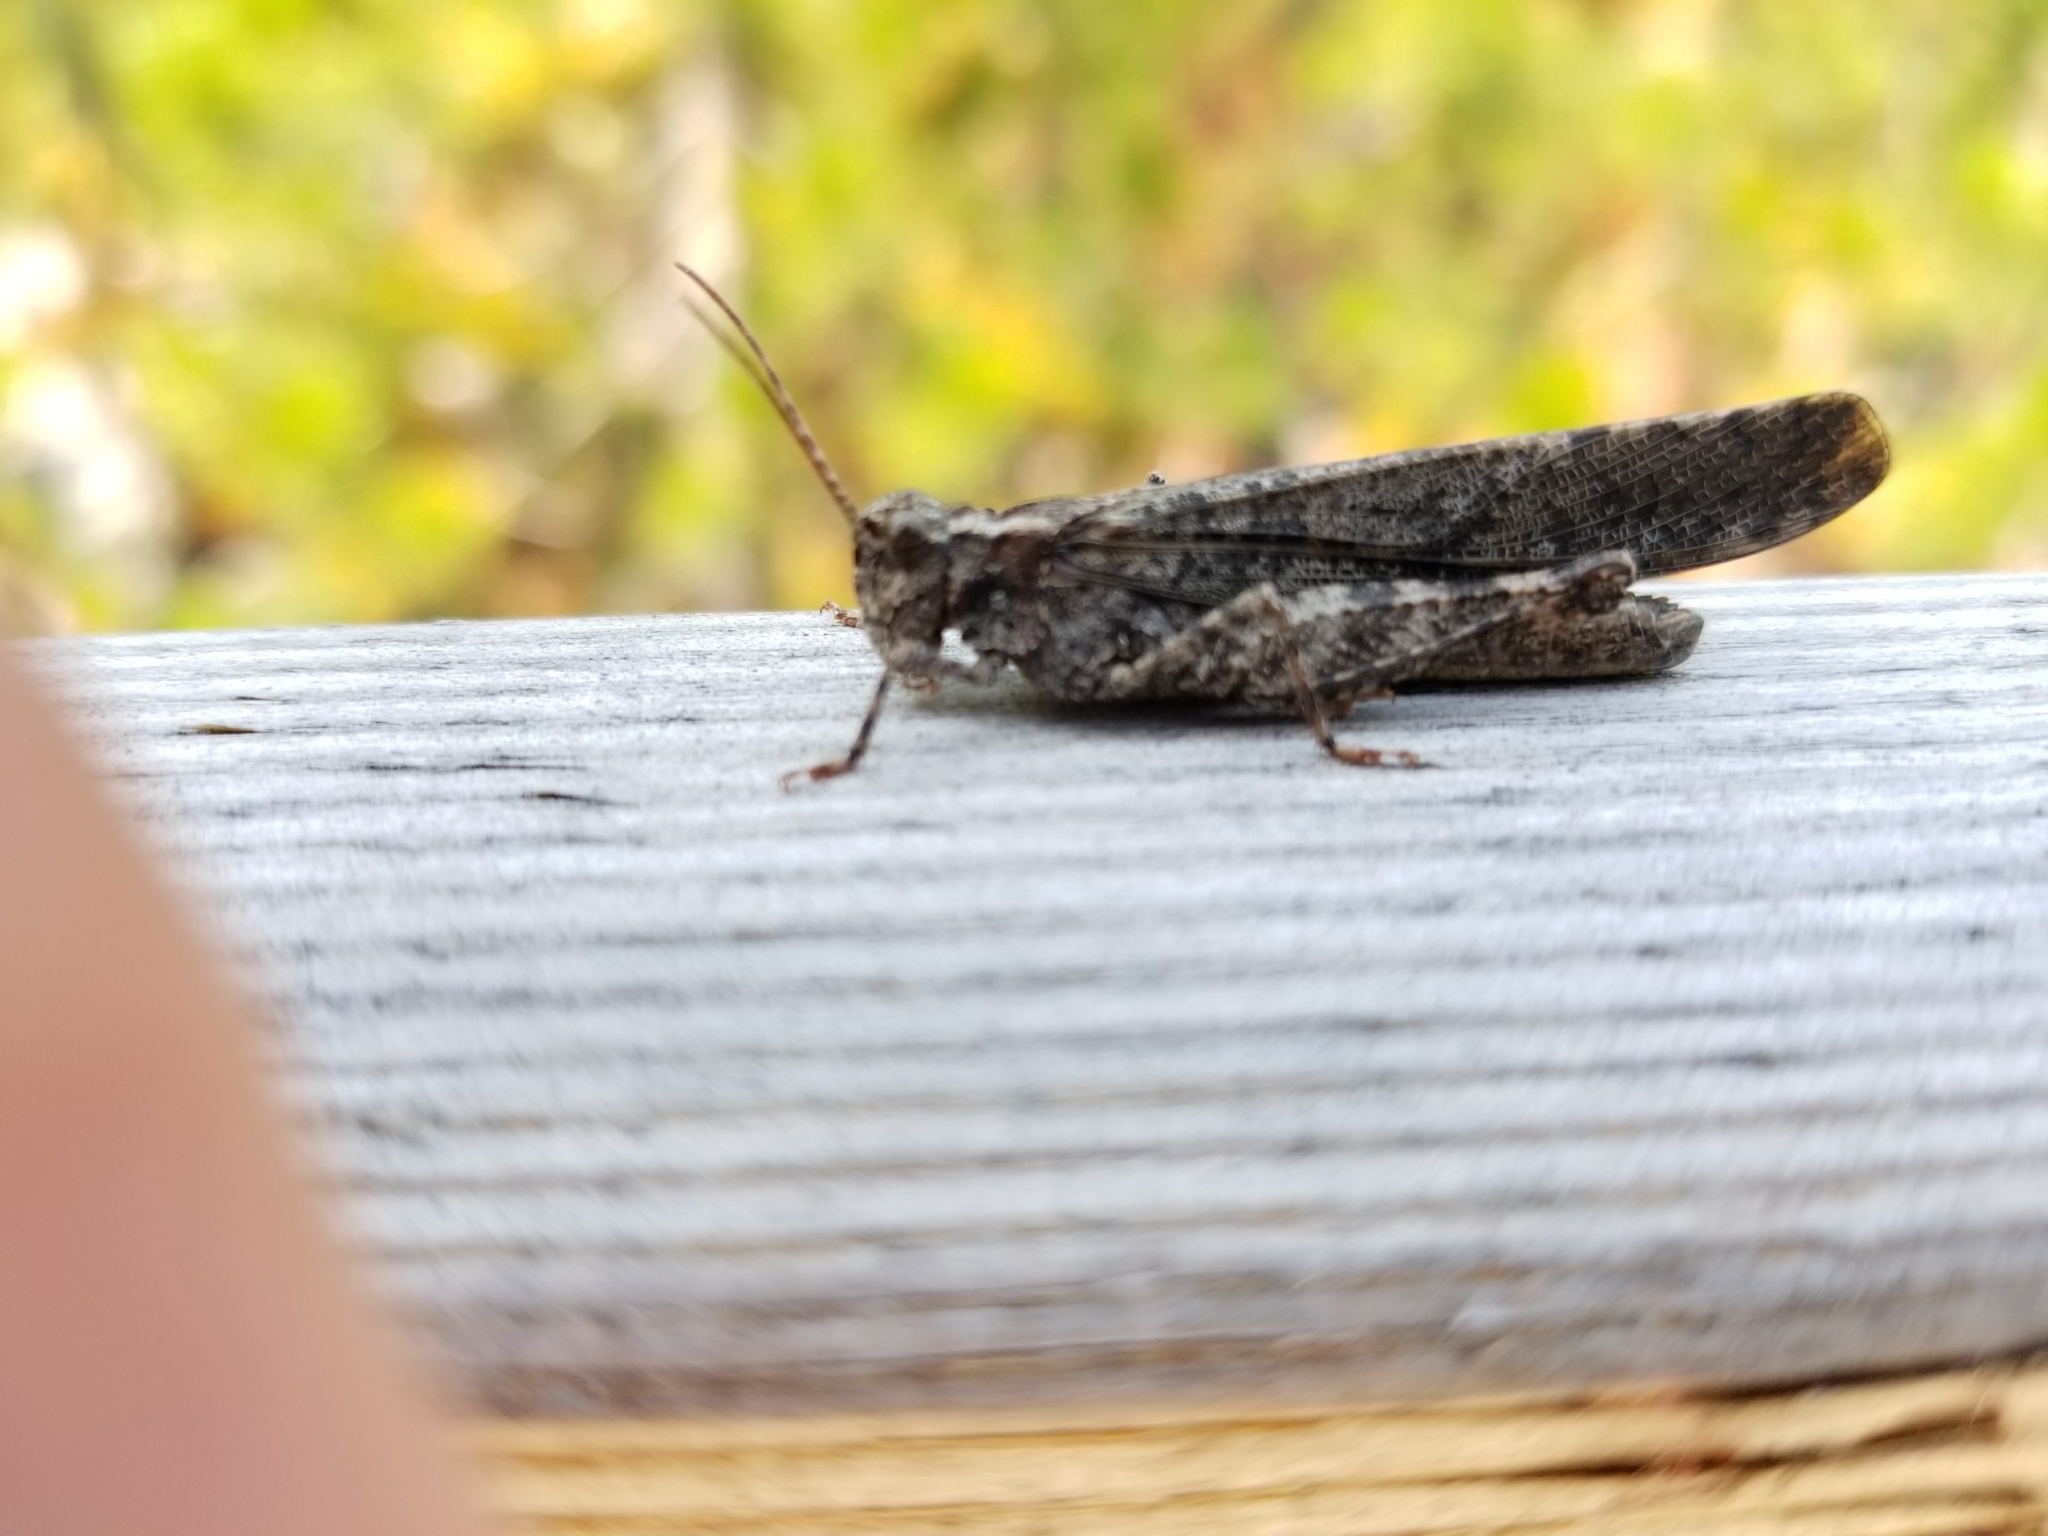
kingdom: Animalia
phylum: Arthropoda
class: Insecta
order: Orthoptera
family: Acrididae
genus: Trimerotropis
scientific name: Trimerotropis verruculata
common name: Crackling forest grasshopper
